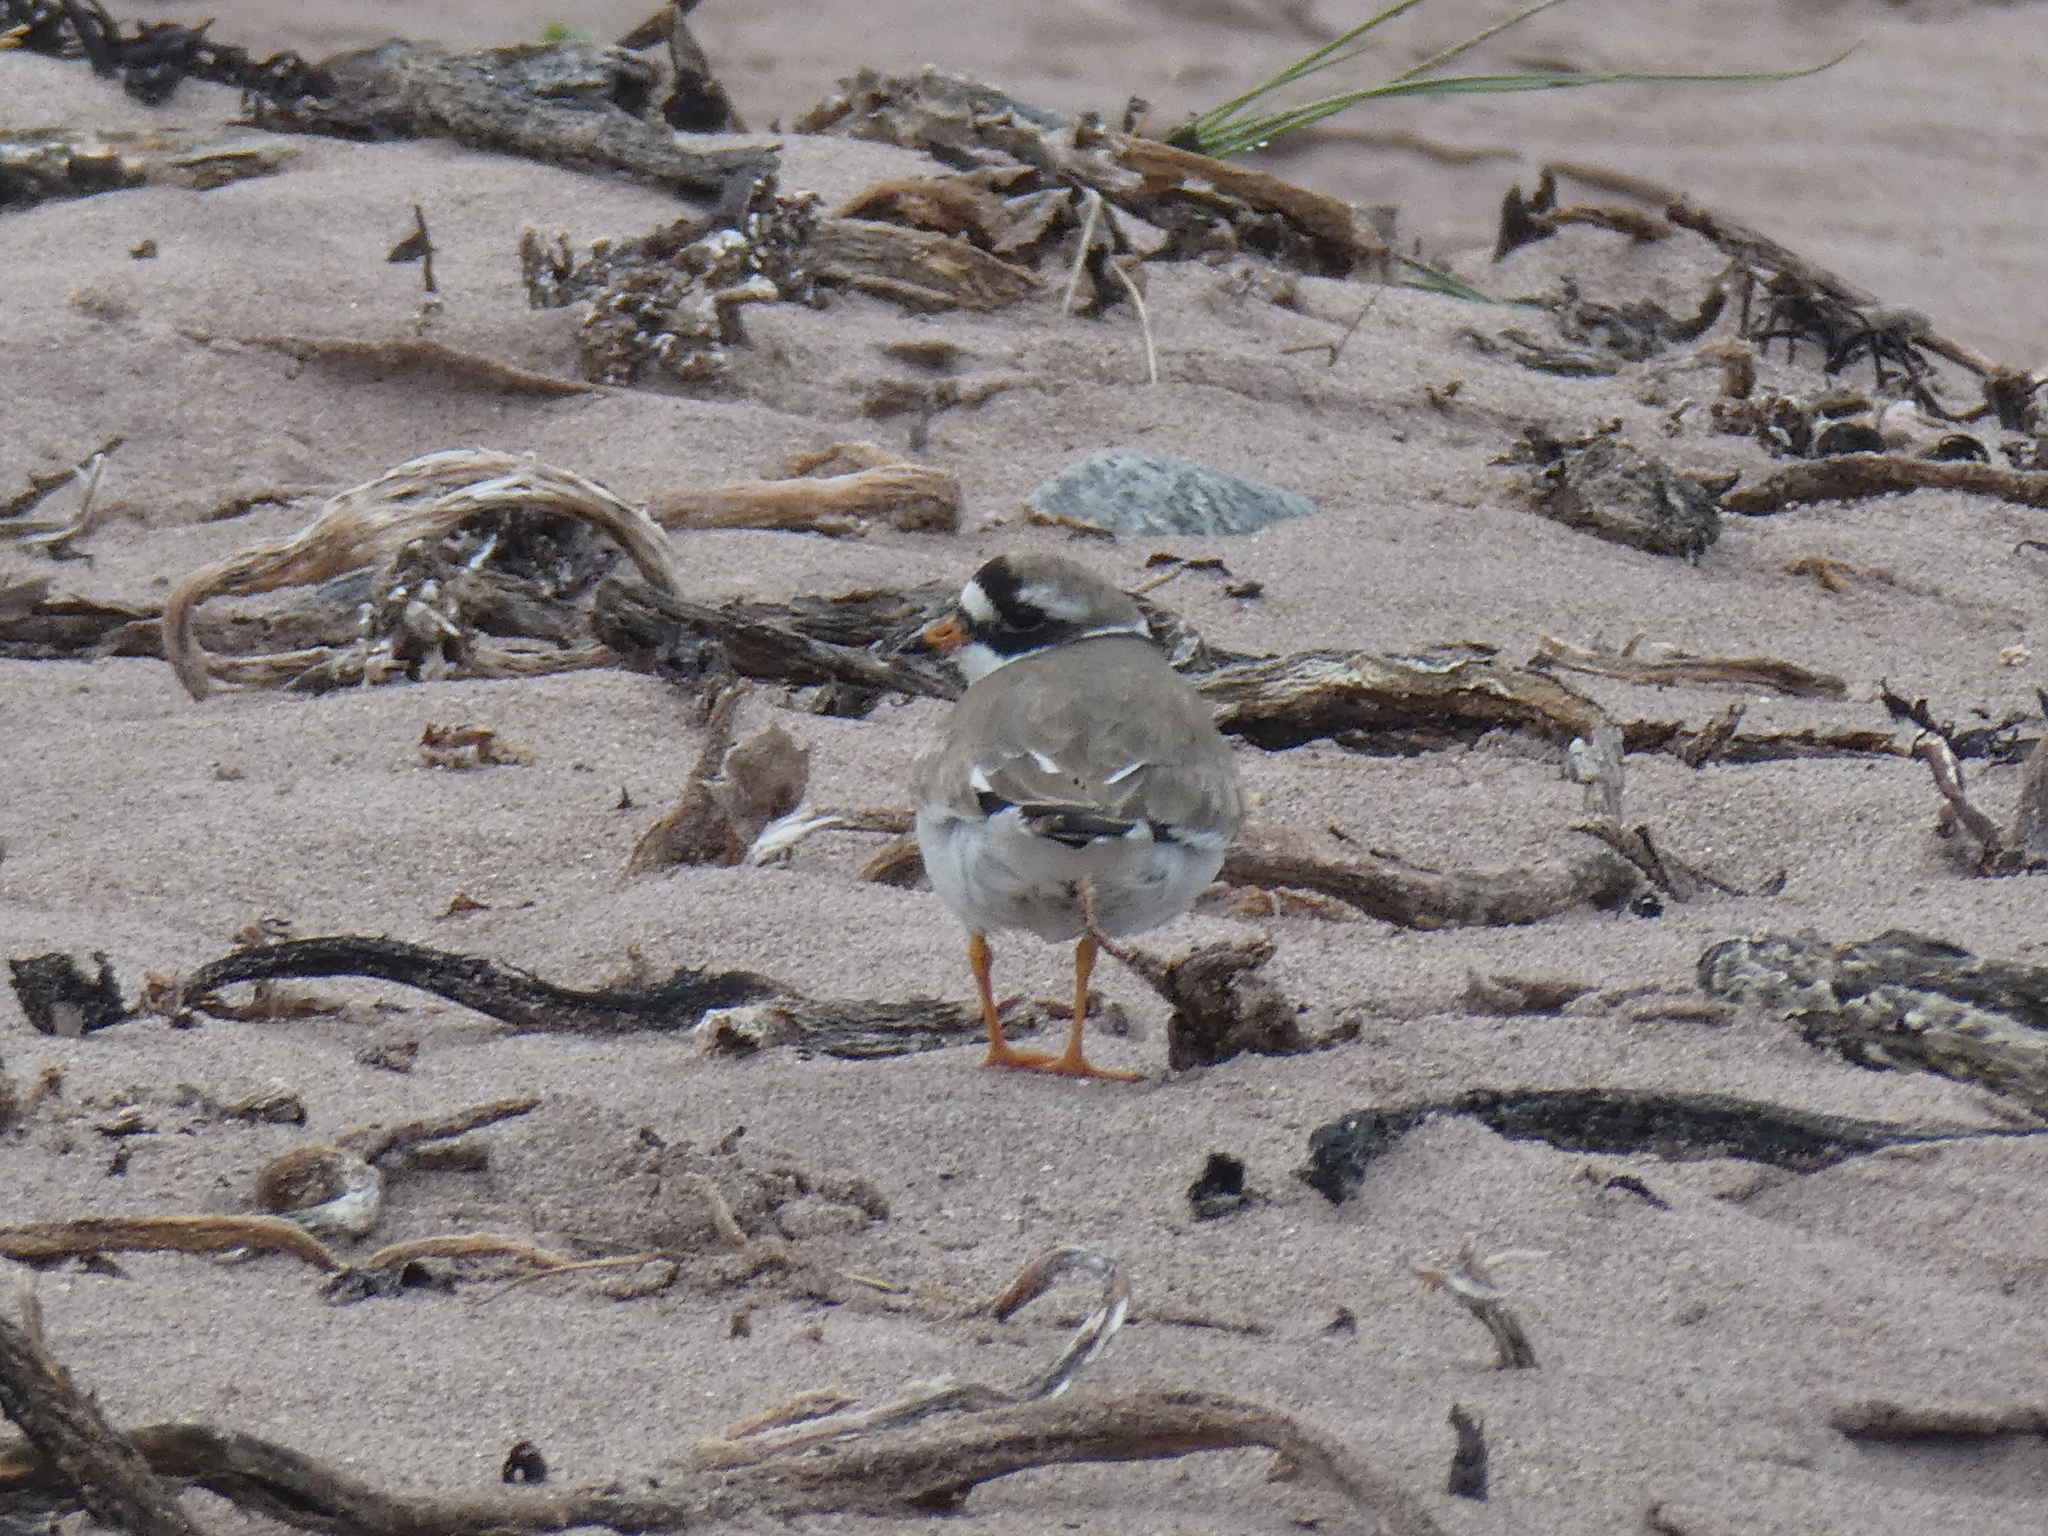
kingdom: Animalia
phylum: Chordata
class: Aves
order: Charadriiformes
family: Charadriidae
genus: Charadrius
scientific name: Charadrius hiaticula
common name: Common ringed plover
